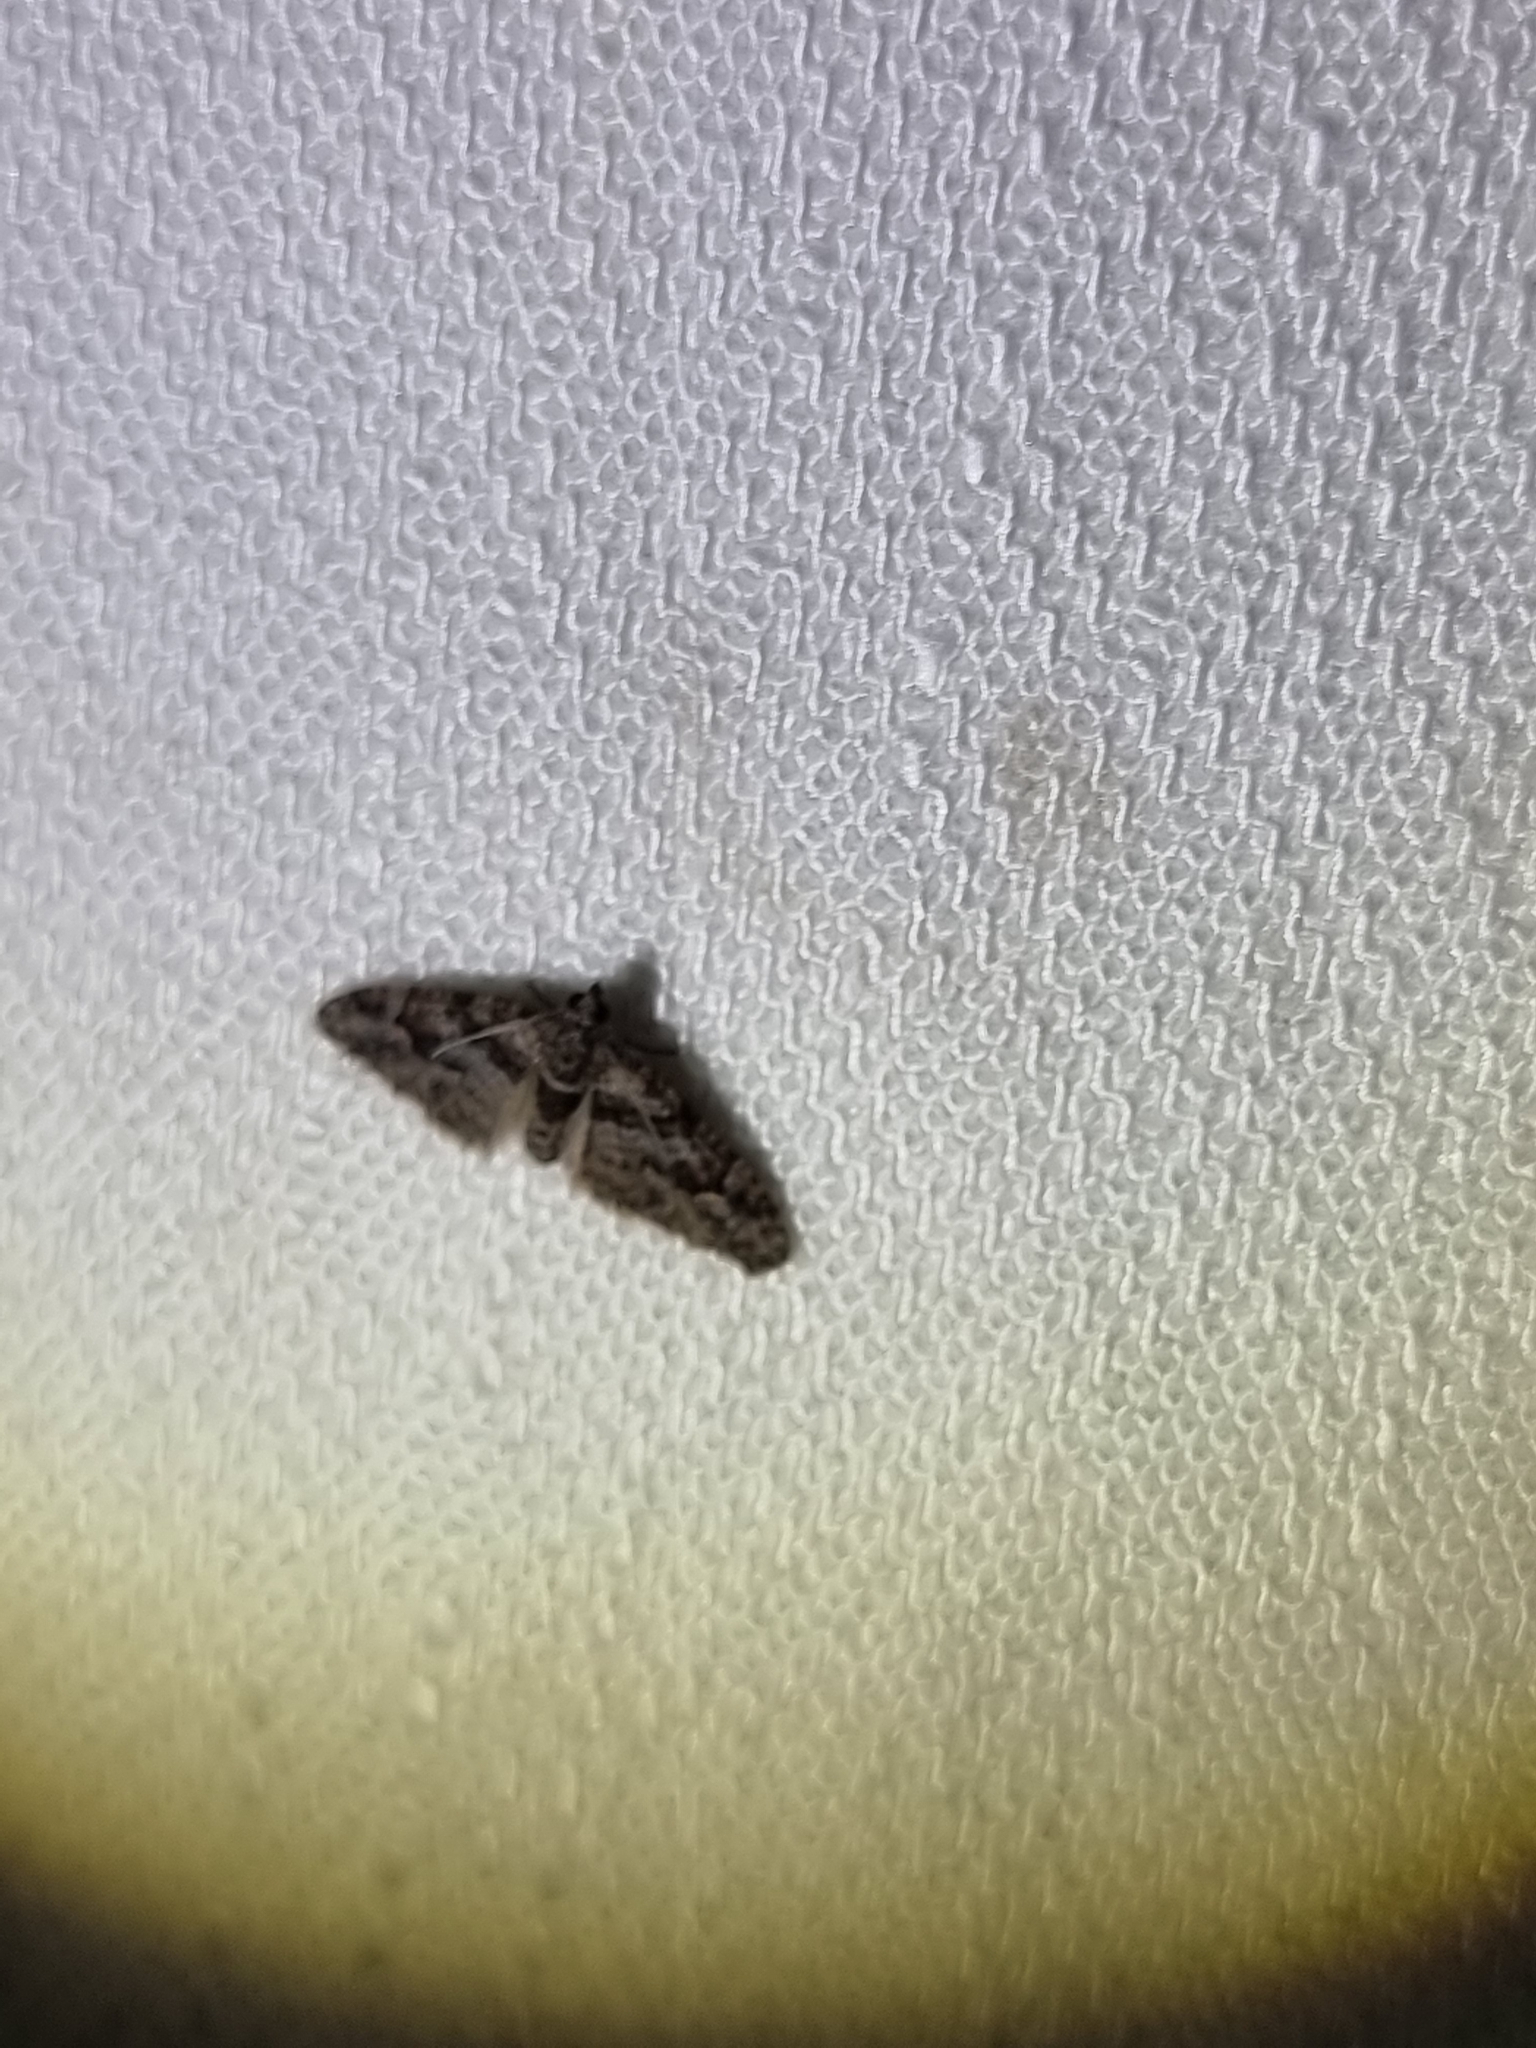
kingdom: Animalia
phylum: Arthropoda
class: Insecta
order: Lepidoptera
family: Geometridae
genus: Phrissogonus
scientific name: Phrissogonus laticostata
